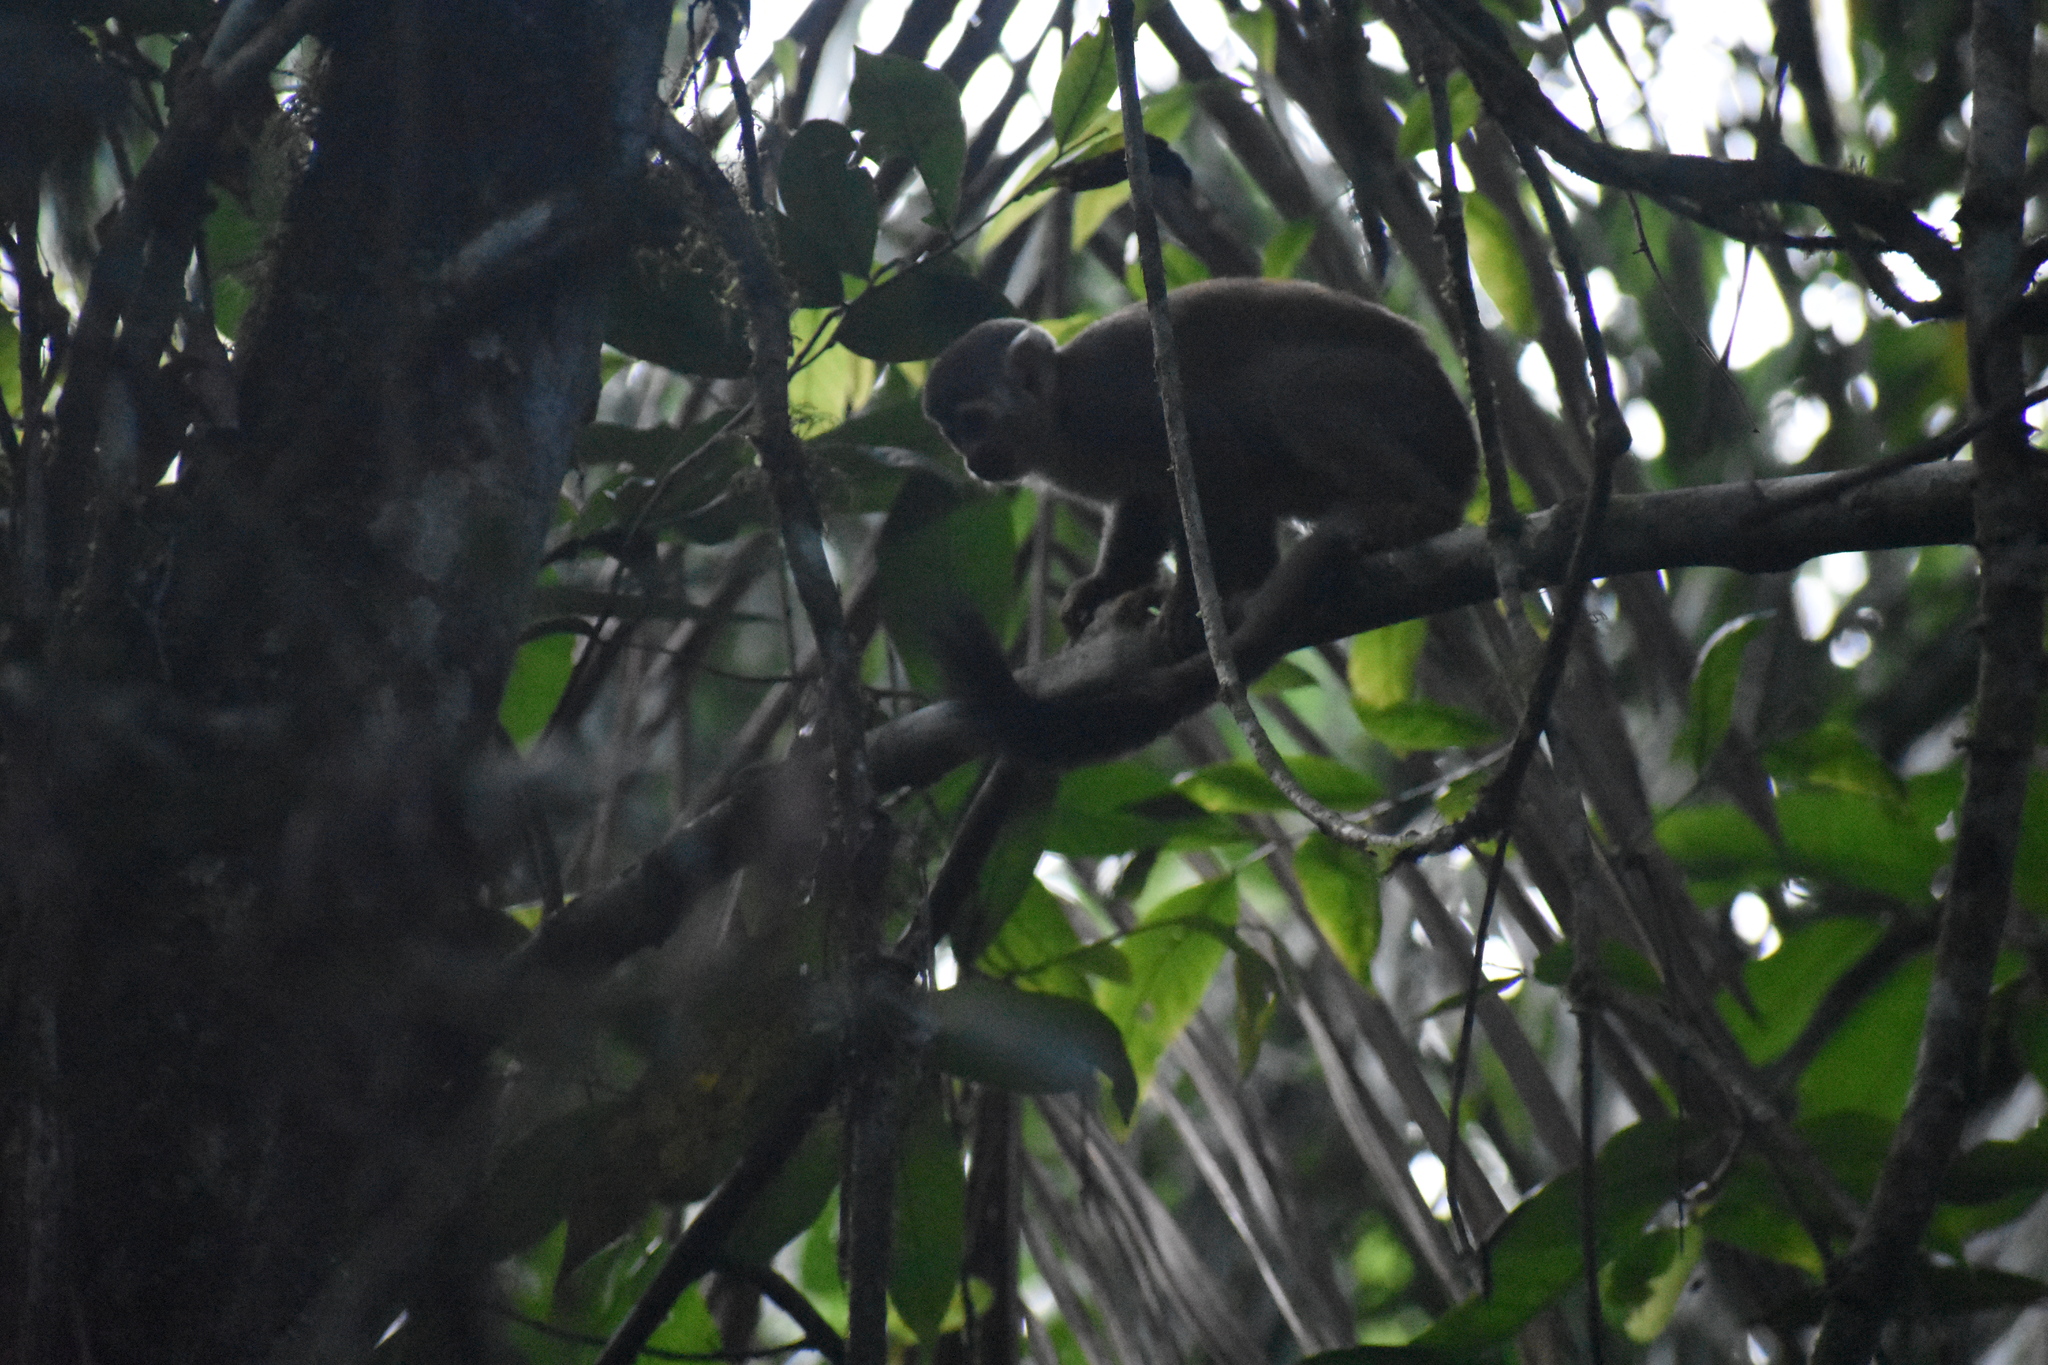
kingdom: Animalia
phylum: Chordata
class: Mammalia
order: Primates
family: Cebidae
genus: Saimiri
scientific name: Saimiri cassiquiarensis
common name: Humboldt’s squirrel monkey
